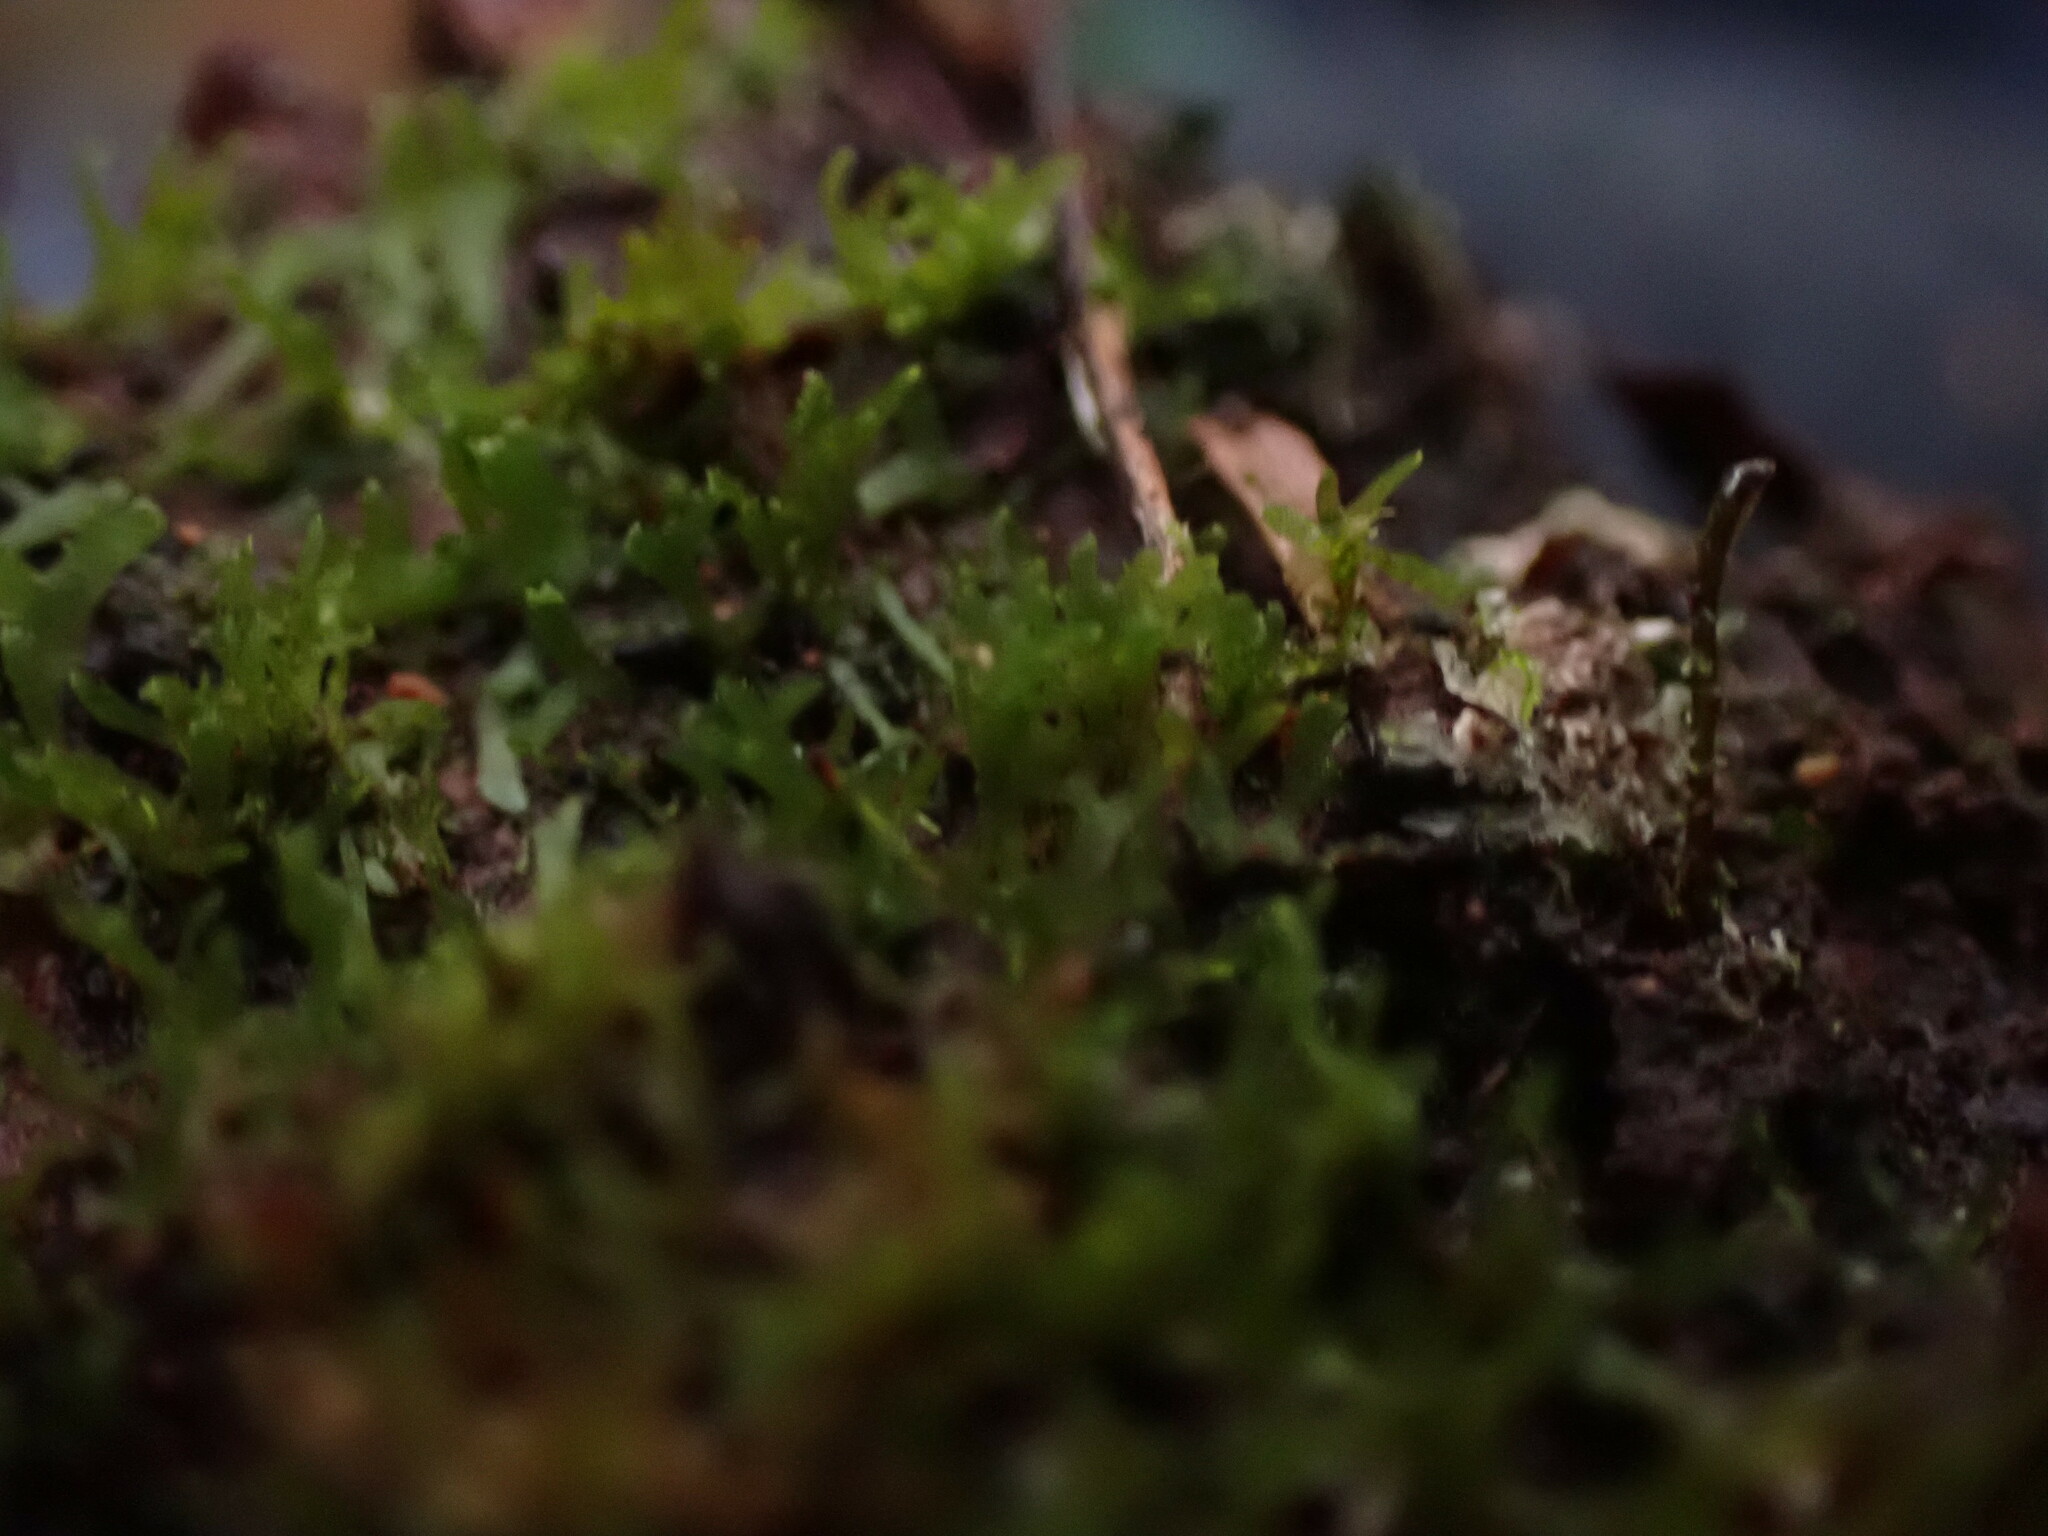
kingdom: Plantae
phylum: Tracheophyta
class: Polypodiopsida
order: Hymenophyllales
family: Hymenophyllaceae
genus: Hymenophyllum
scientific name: Hymenophyllum wrightii
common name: Wright's filmy fern
